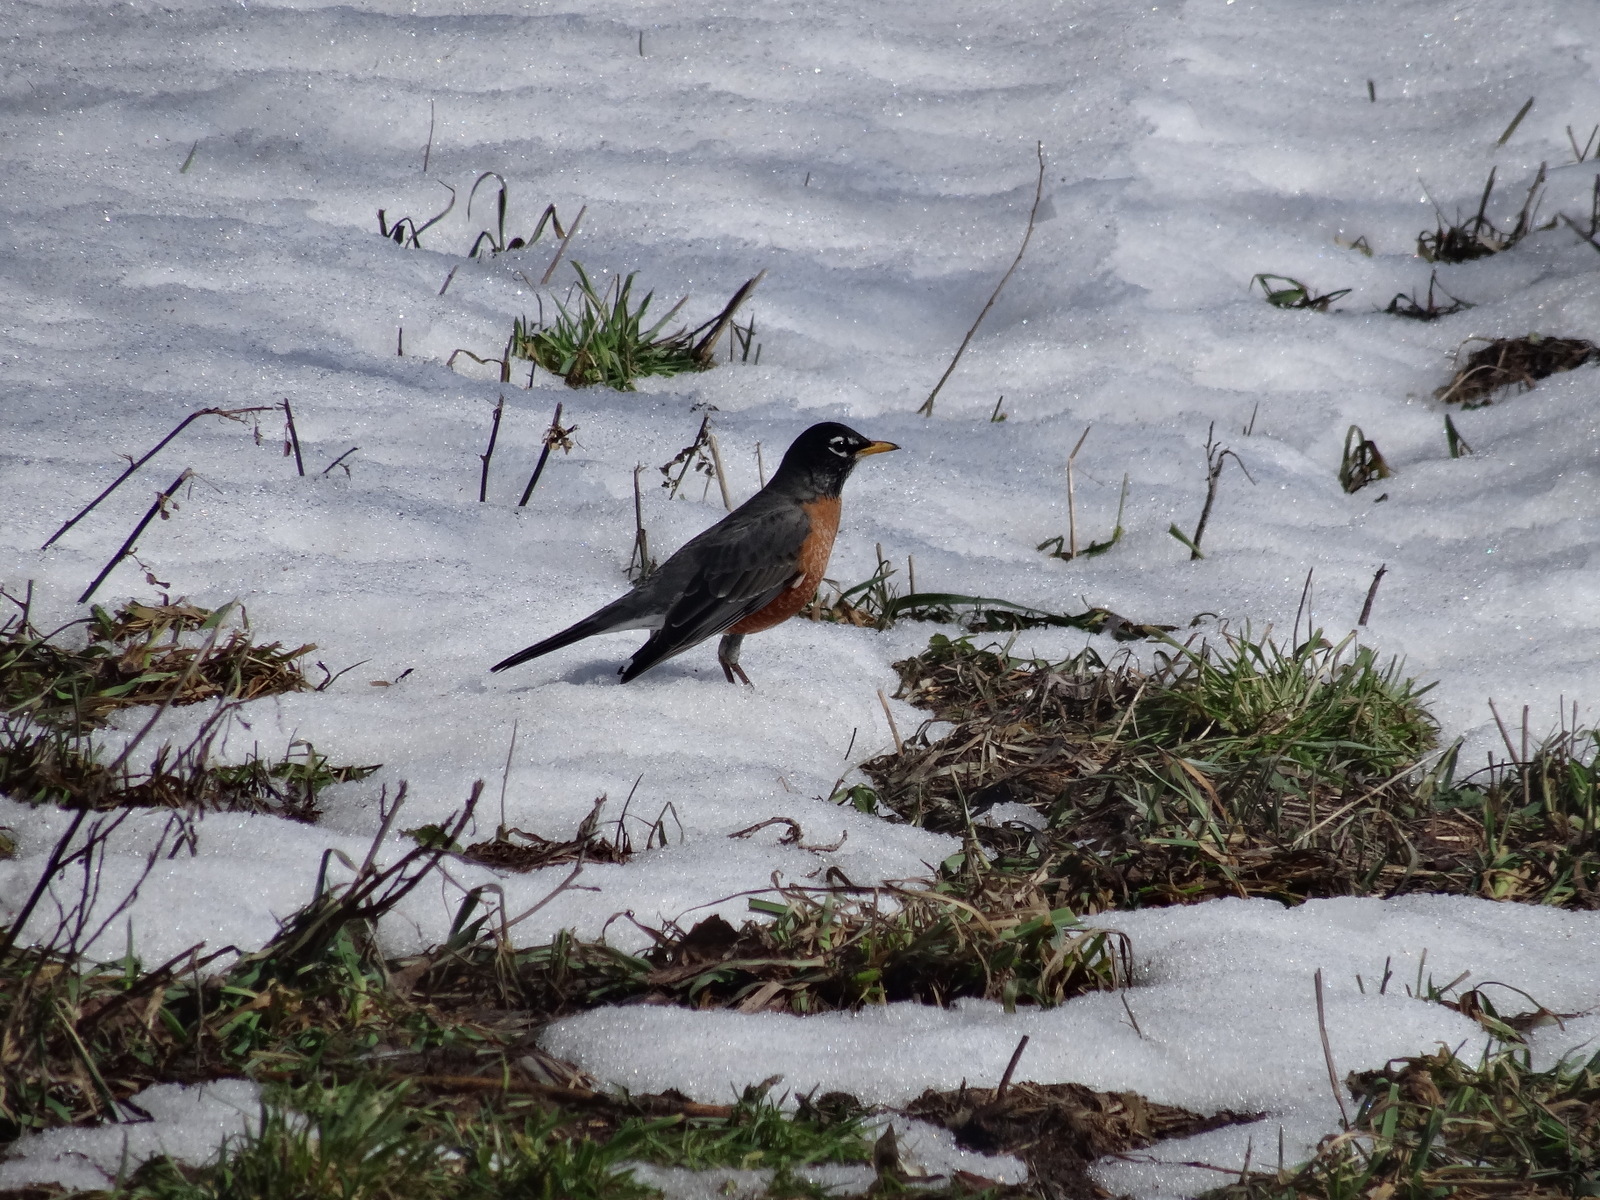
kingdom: Animalia
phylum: Chordata
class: Aves
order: Passeriformes
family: Turdidae
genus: Turdus
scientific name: Turdus migratorius
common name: American robin
